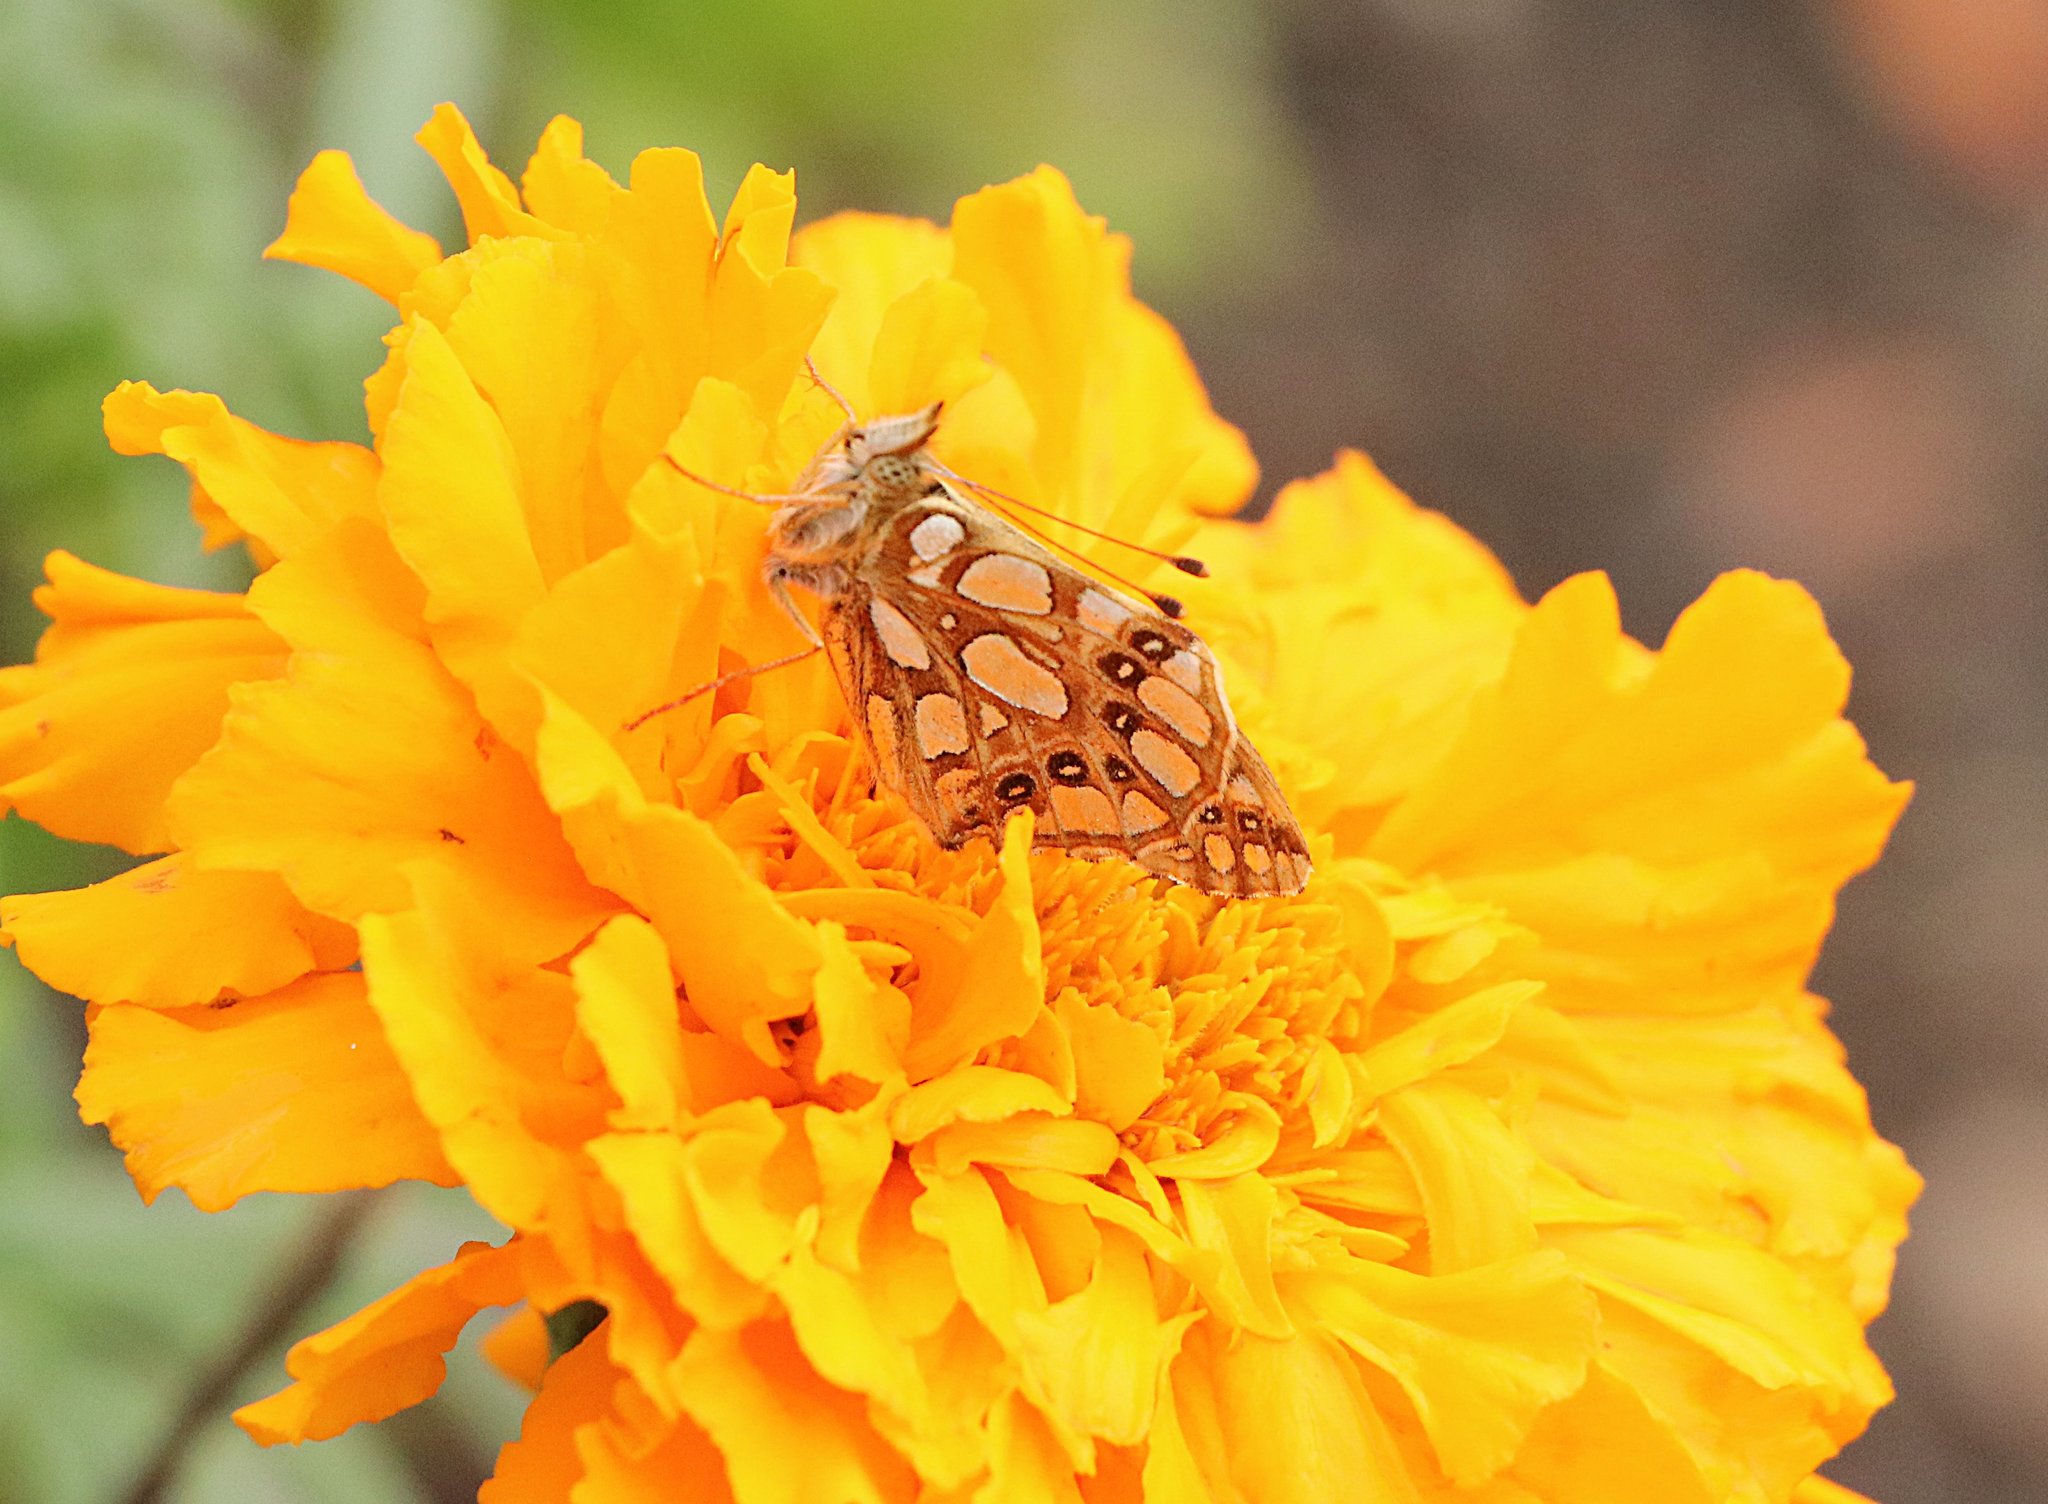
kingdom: Animalia
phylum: Arthropoda
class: Insecta
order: Lepidoptera
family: Nymphalidae
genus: Issoria
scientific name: Issoria lathonia
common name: Queen of spain fritillary
